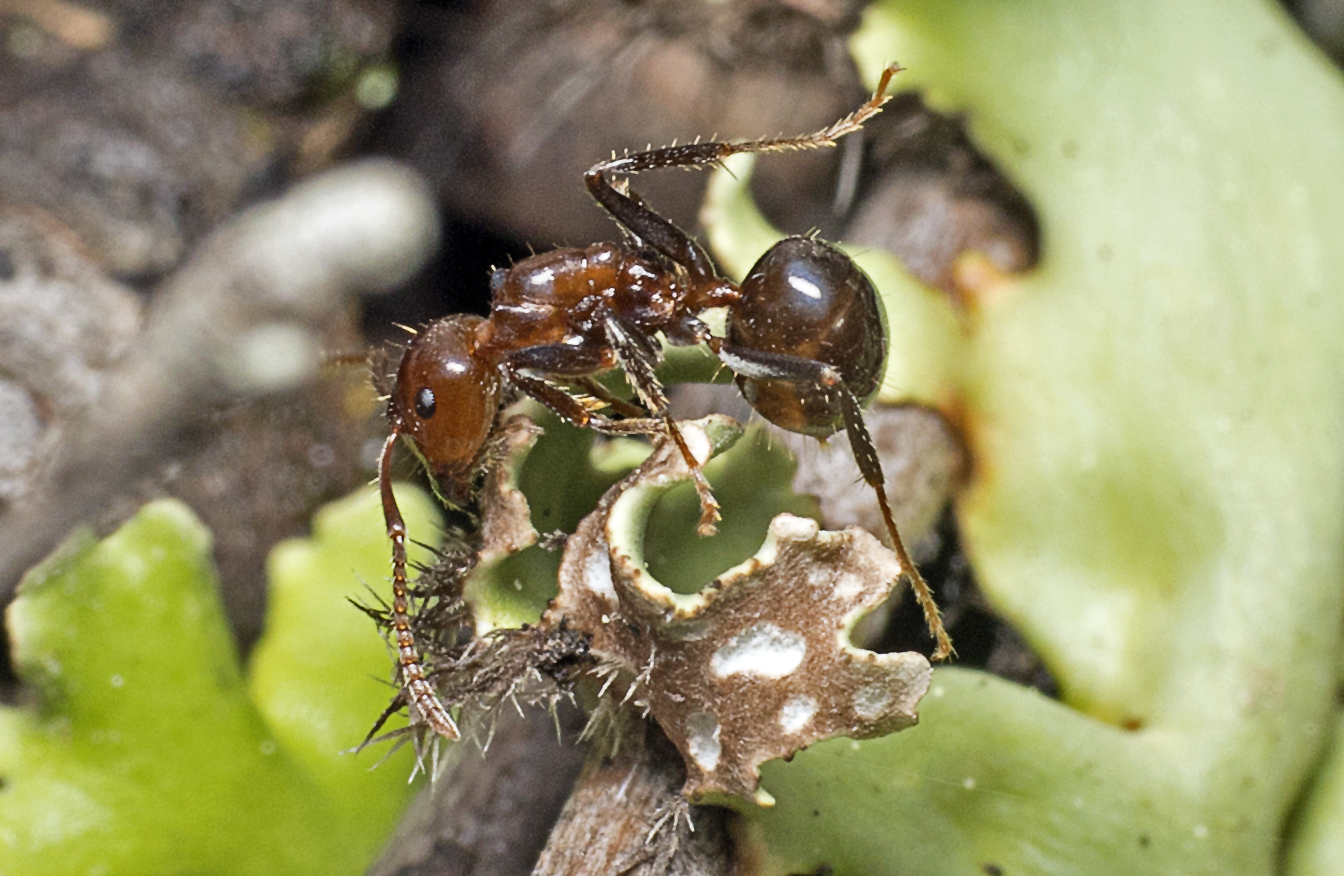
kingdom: Animalia
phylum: Arthropoda
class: Insecta
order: Hymenoptera
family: Formicidae
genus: Notoncus
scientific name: Notoncus gilberti
